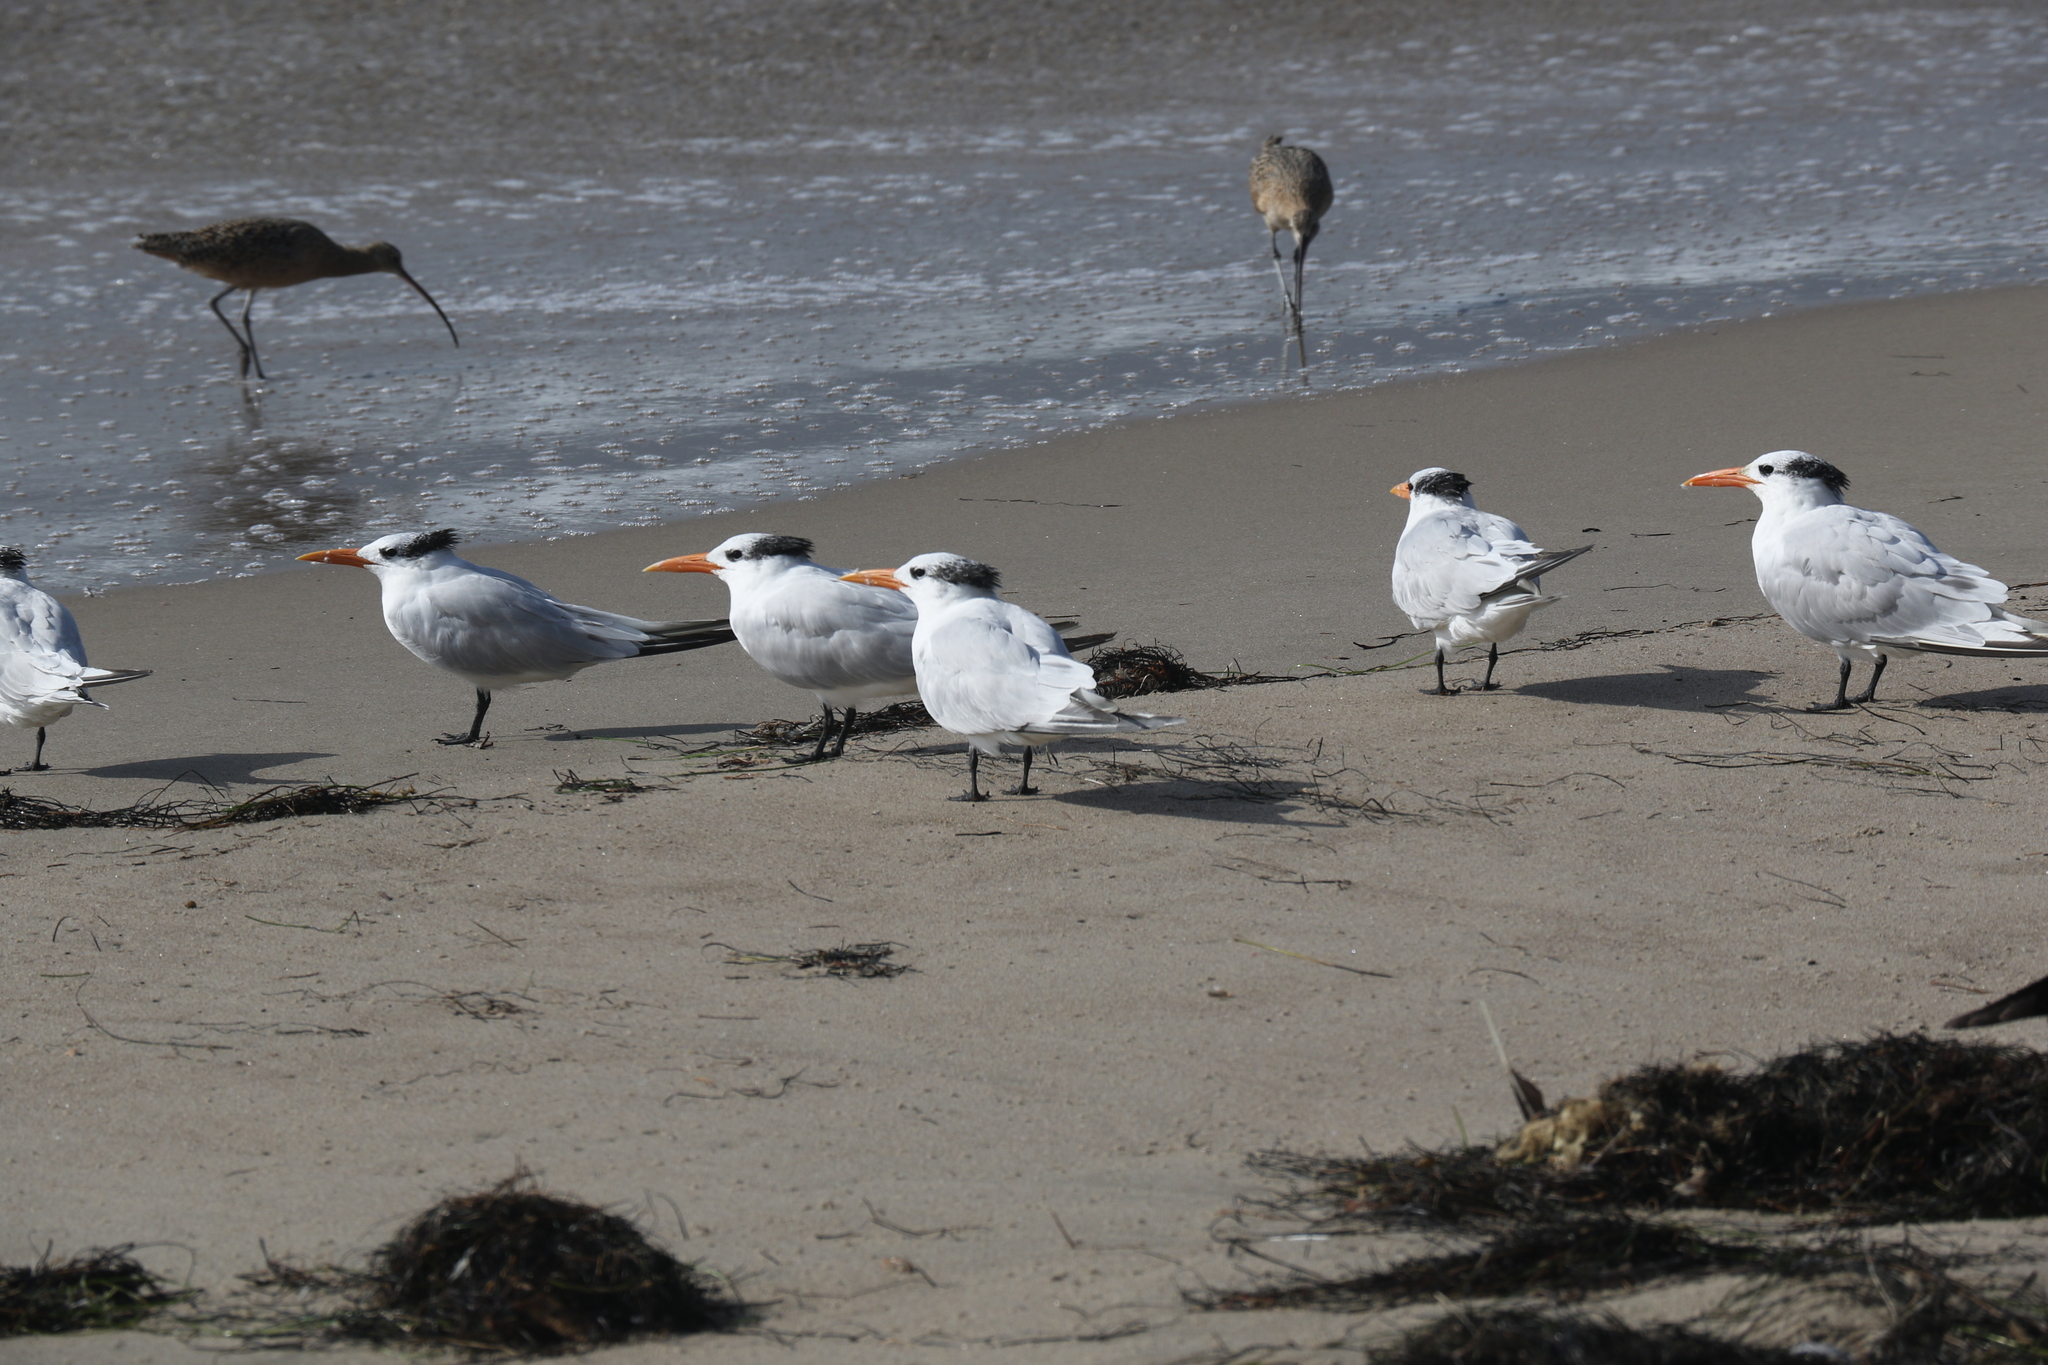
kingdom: Animalia
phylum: Chordata
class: Aves
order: Charadriiformes
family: Laridae
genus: Thalasseus
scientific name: Thalasseus maximus
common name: Royal tern
